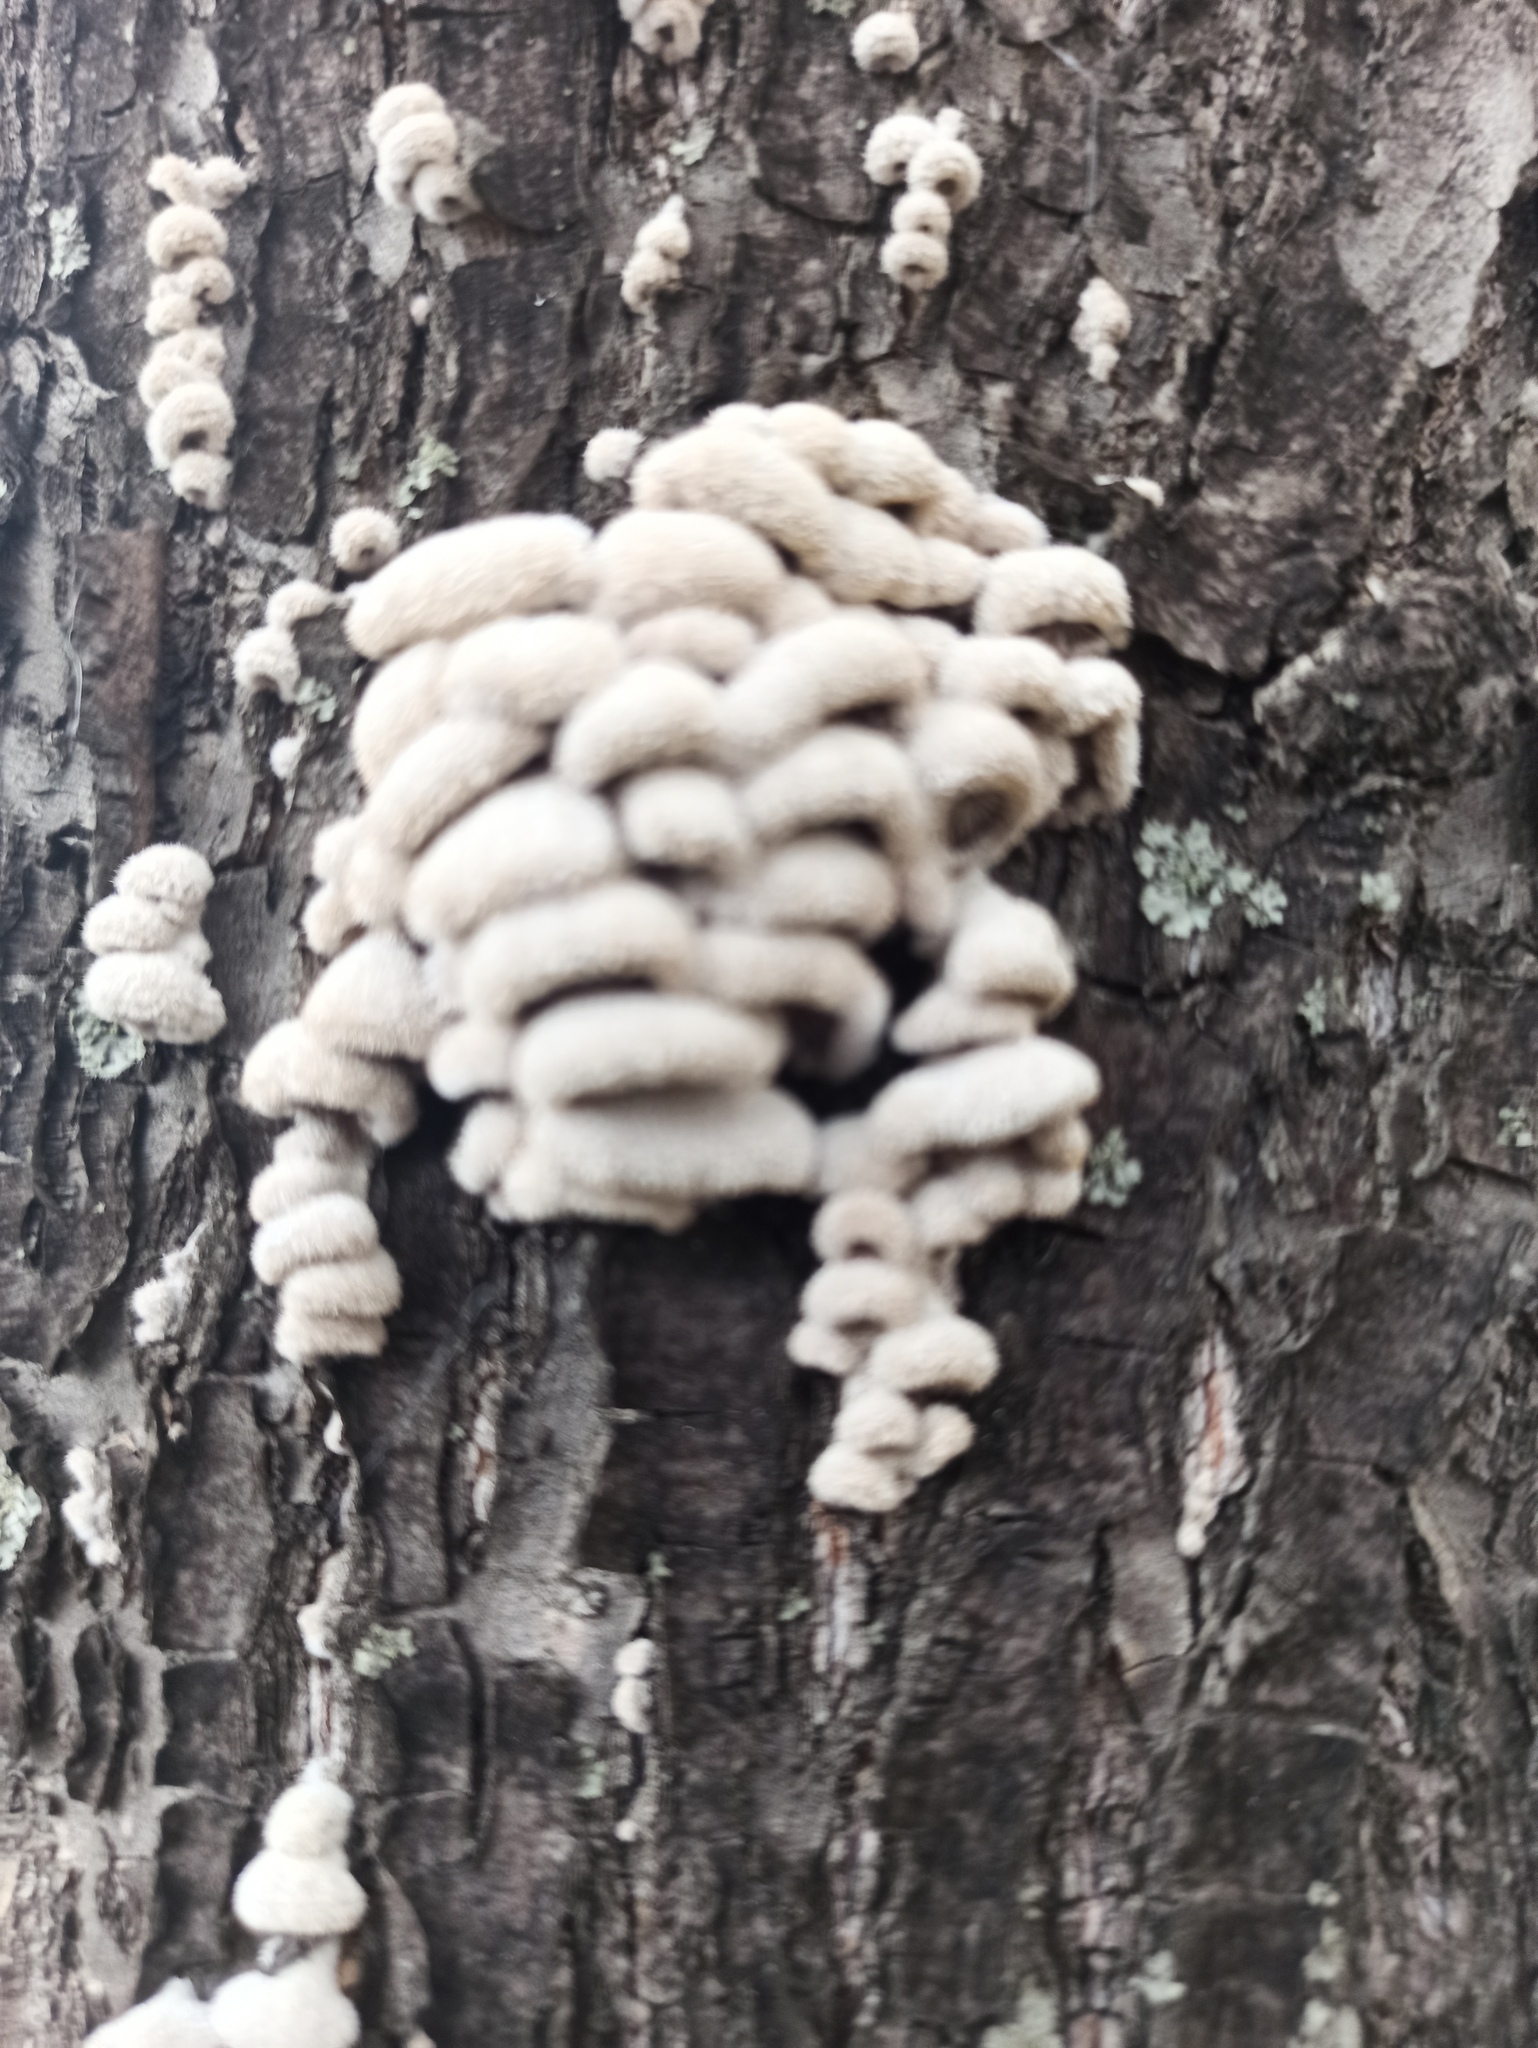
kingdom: Fungi
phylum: Basidiomycota
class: Agaricomycetes
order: Agaricales
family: Schizophyllaceae
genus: Schizophyllum
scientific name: Schizophyllum commune
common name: Common porecrust
